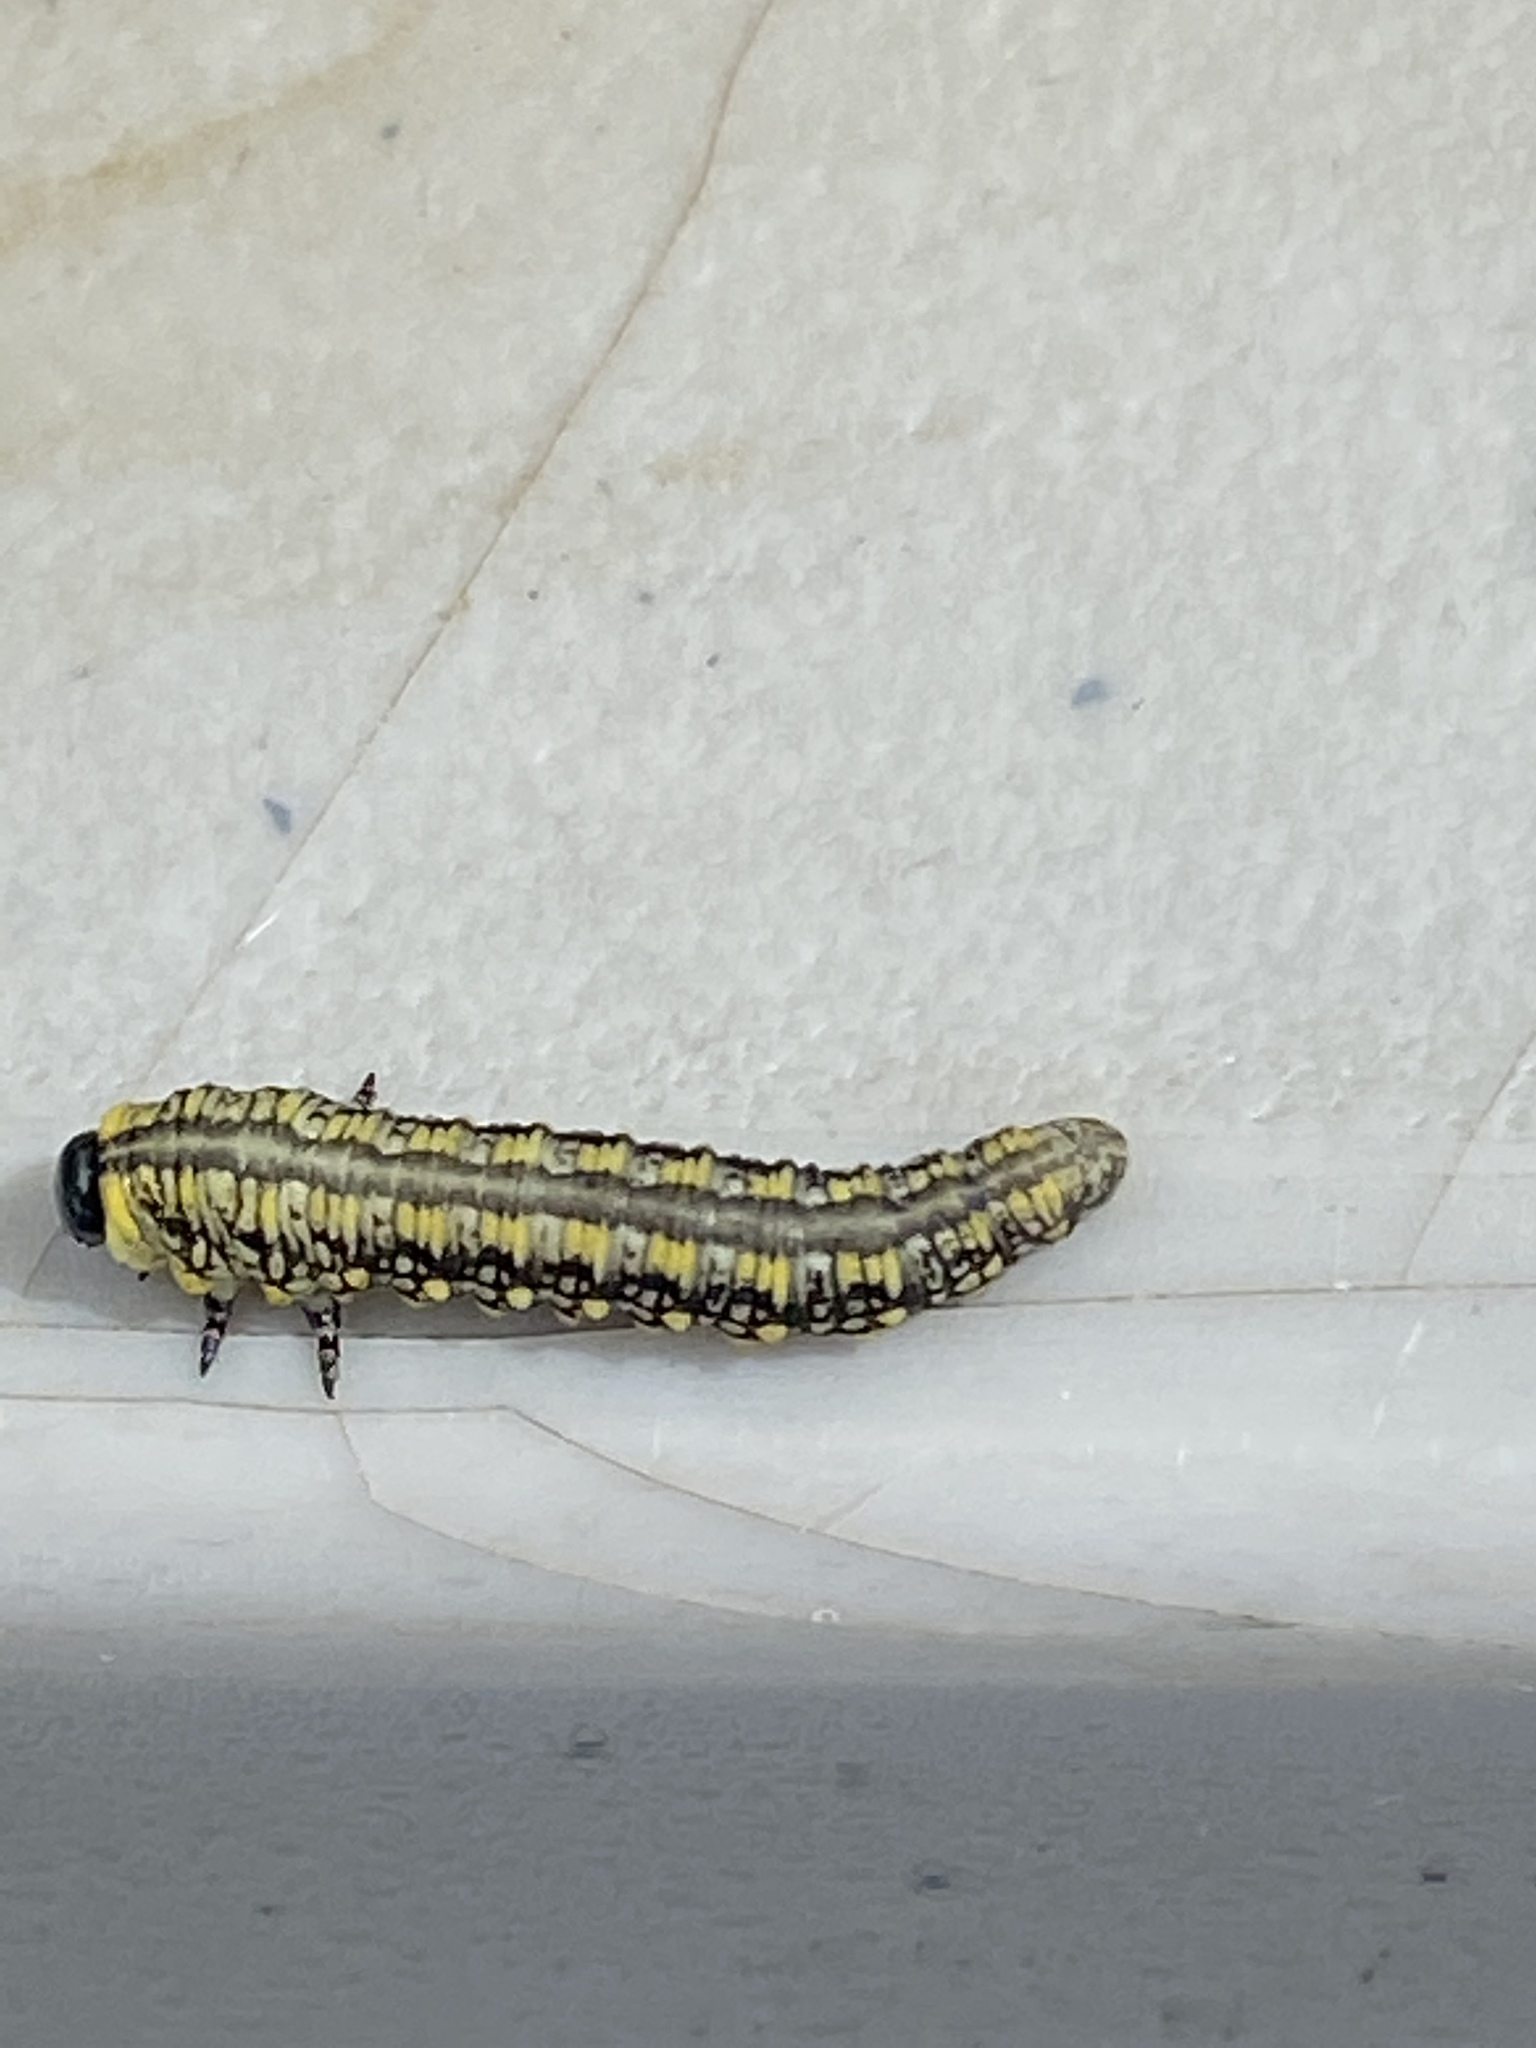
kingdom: Animalia
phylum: Arthropoda
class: Insecta
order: Hymenoptera
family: Diprionidae
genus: Diprion
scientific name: Diprion similis
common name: Pine sawfly
